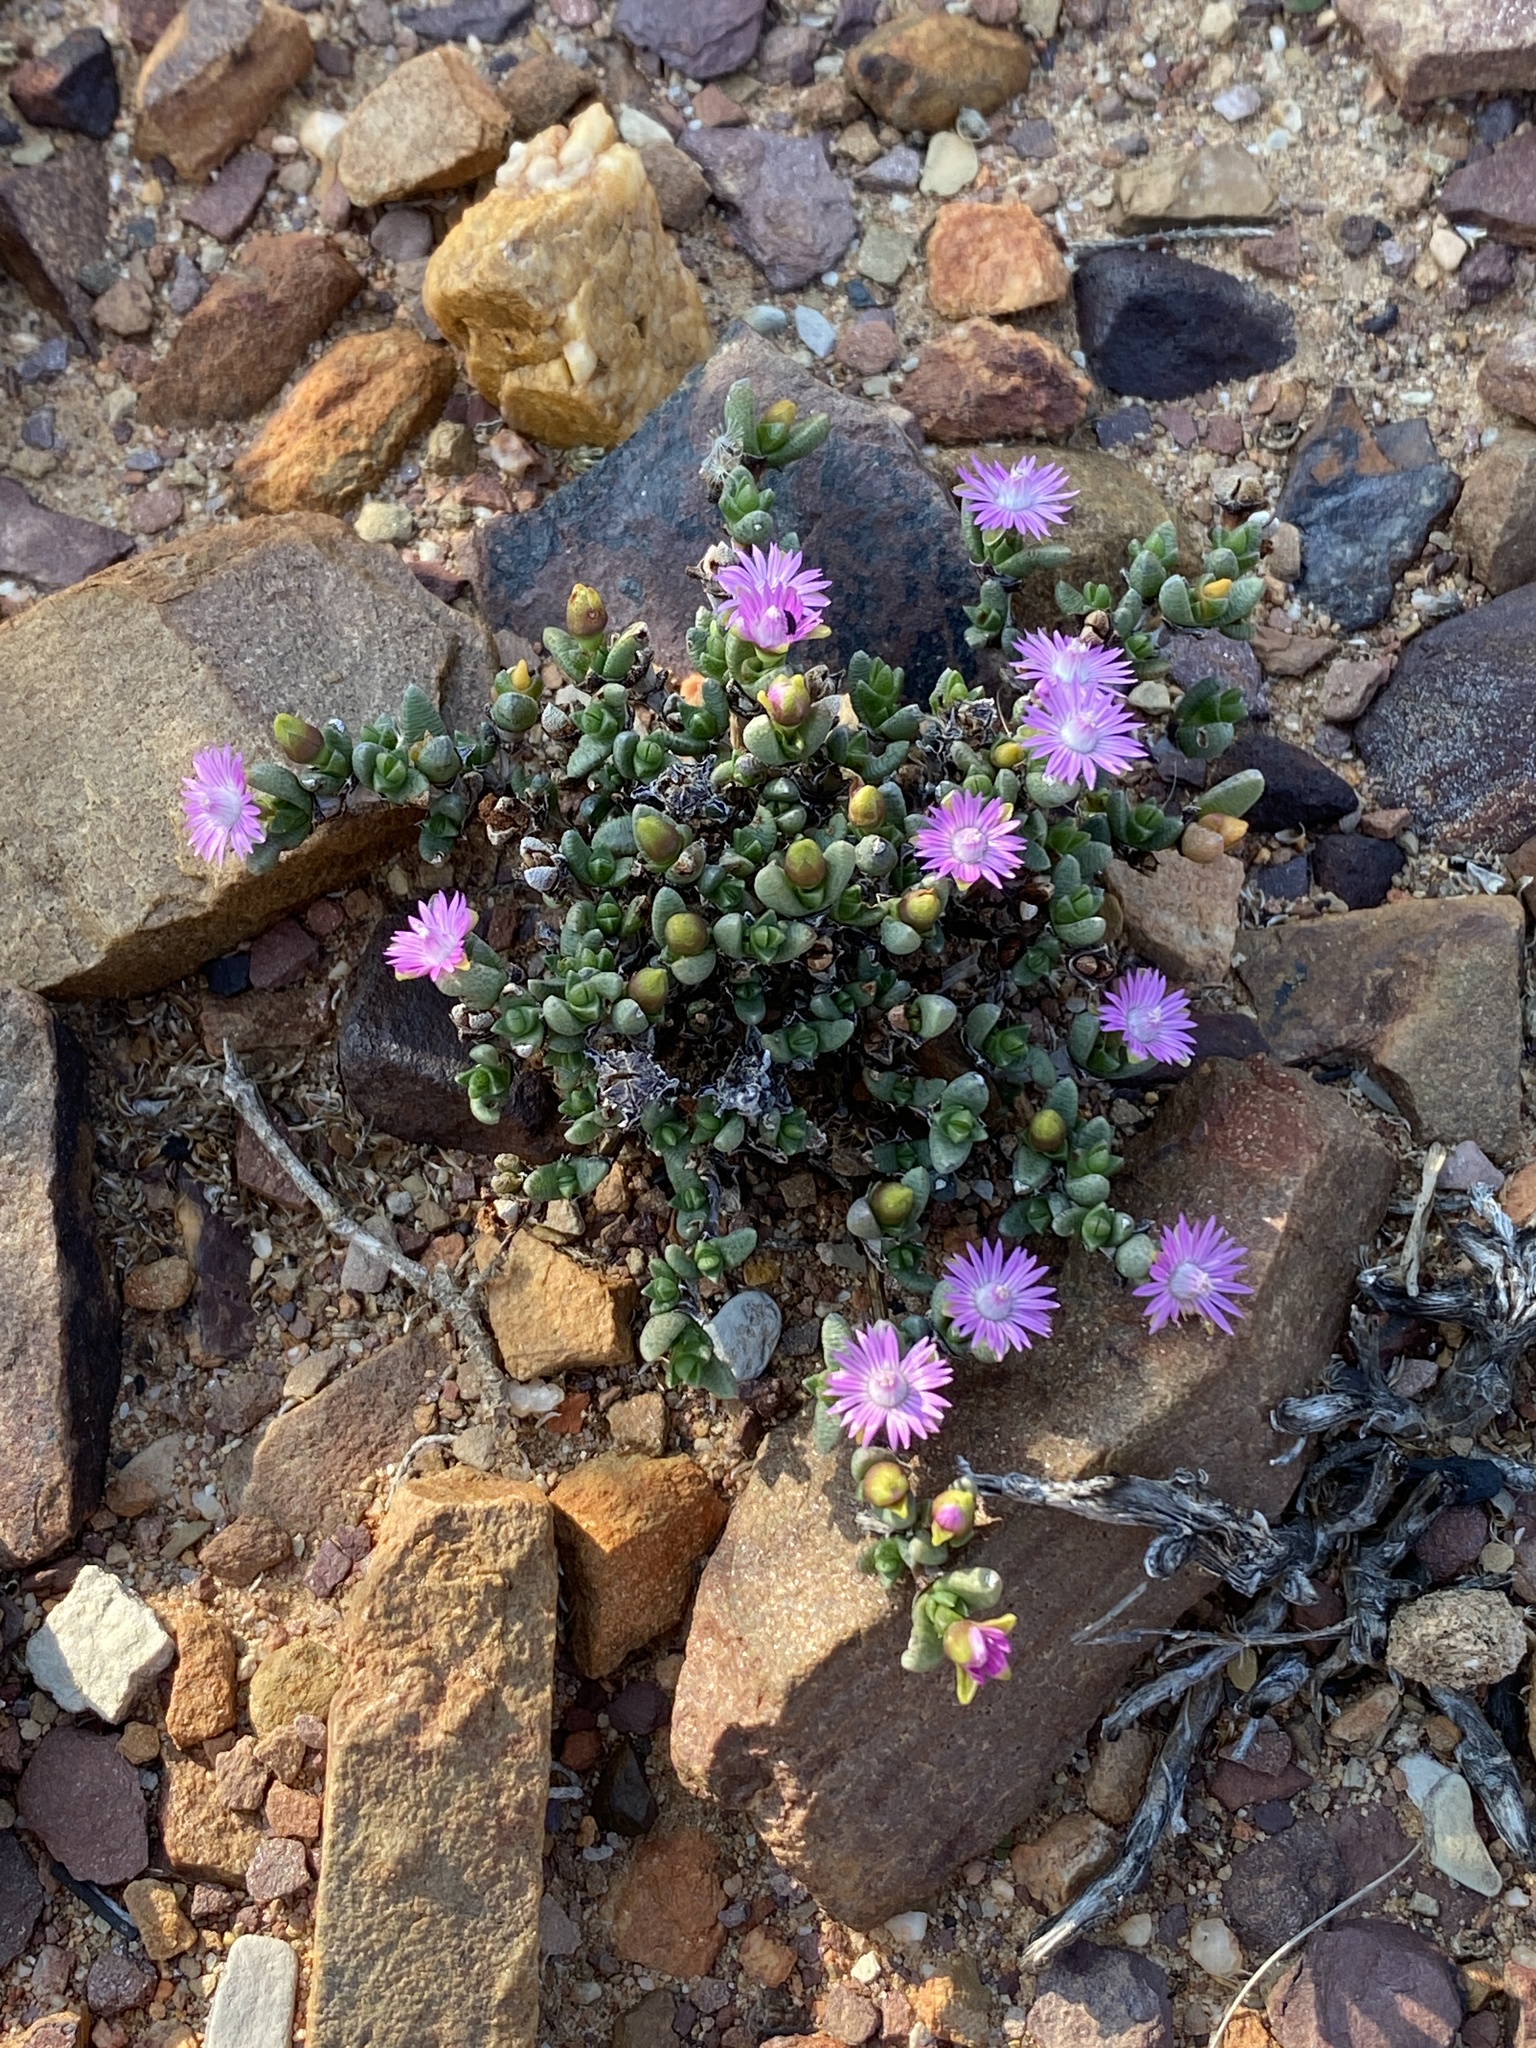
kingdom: Plantae
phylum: Tracheophyta
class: Magnoliopsida
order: Caryophyllales
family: Aizoaceae
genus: Antimima
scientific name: Antimima piscodora
